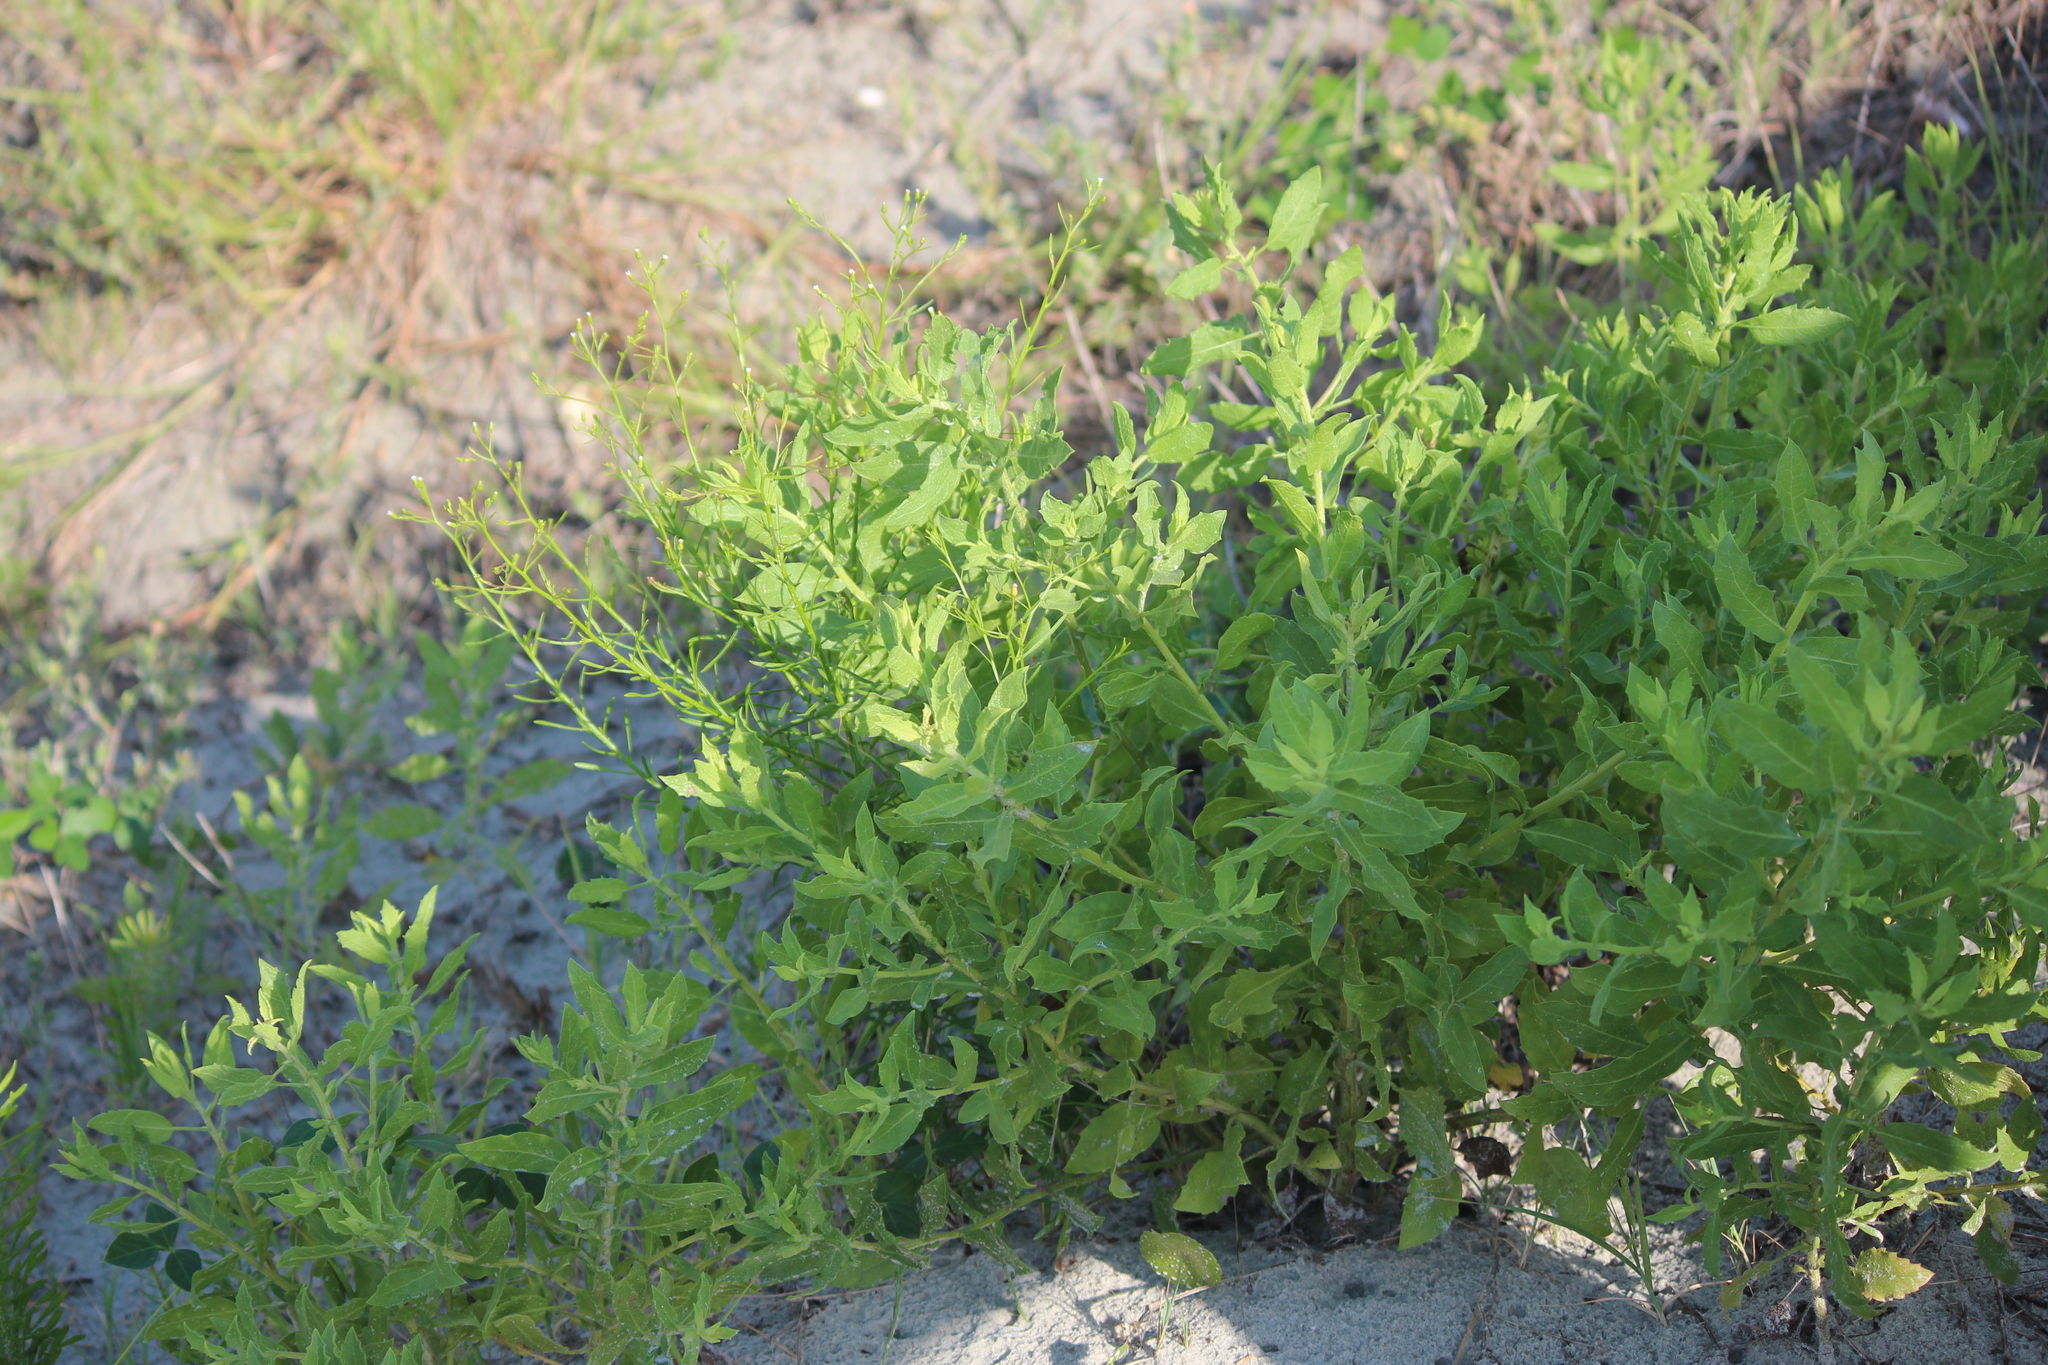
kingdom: Plantae
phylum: Tracheophyta
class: Magnoliopsida
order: Asterales
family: Asteraceae
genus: Heterotheca
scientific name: Heterotheca subaxillaris
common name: Camphorweed
